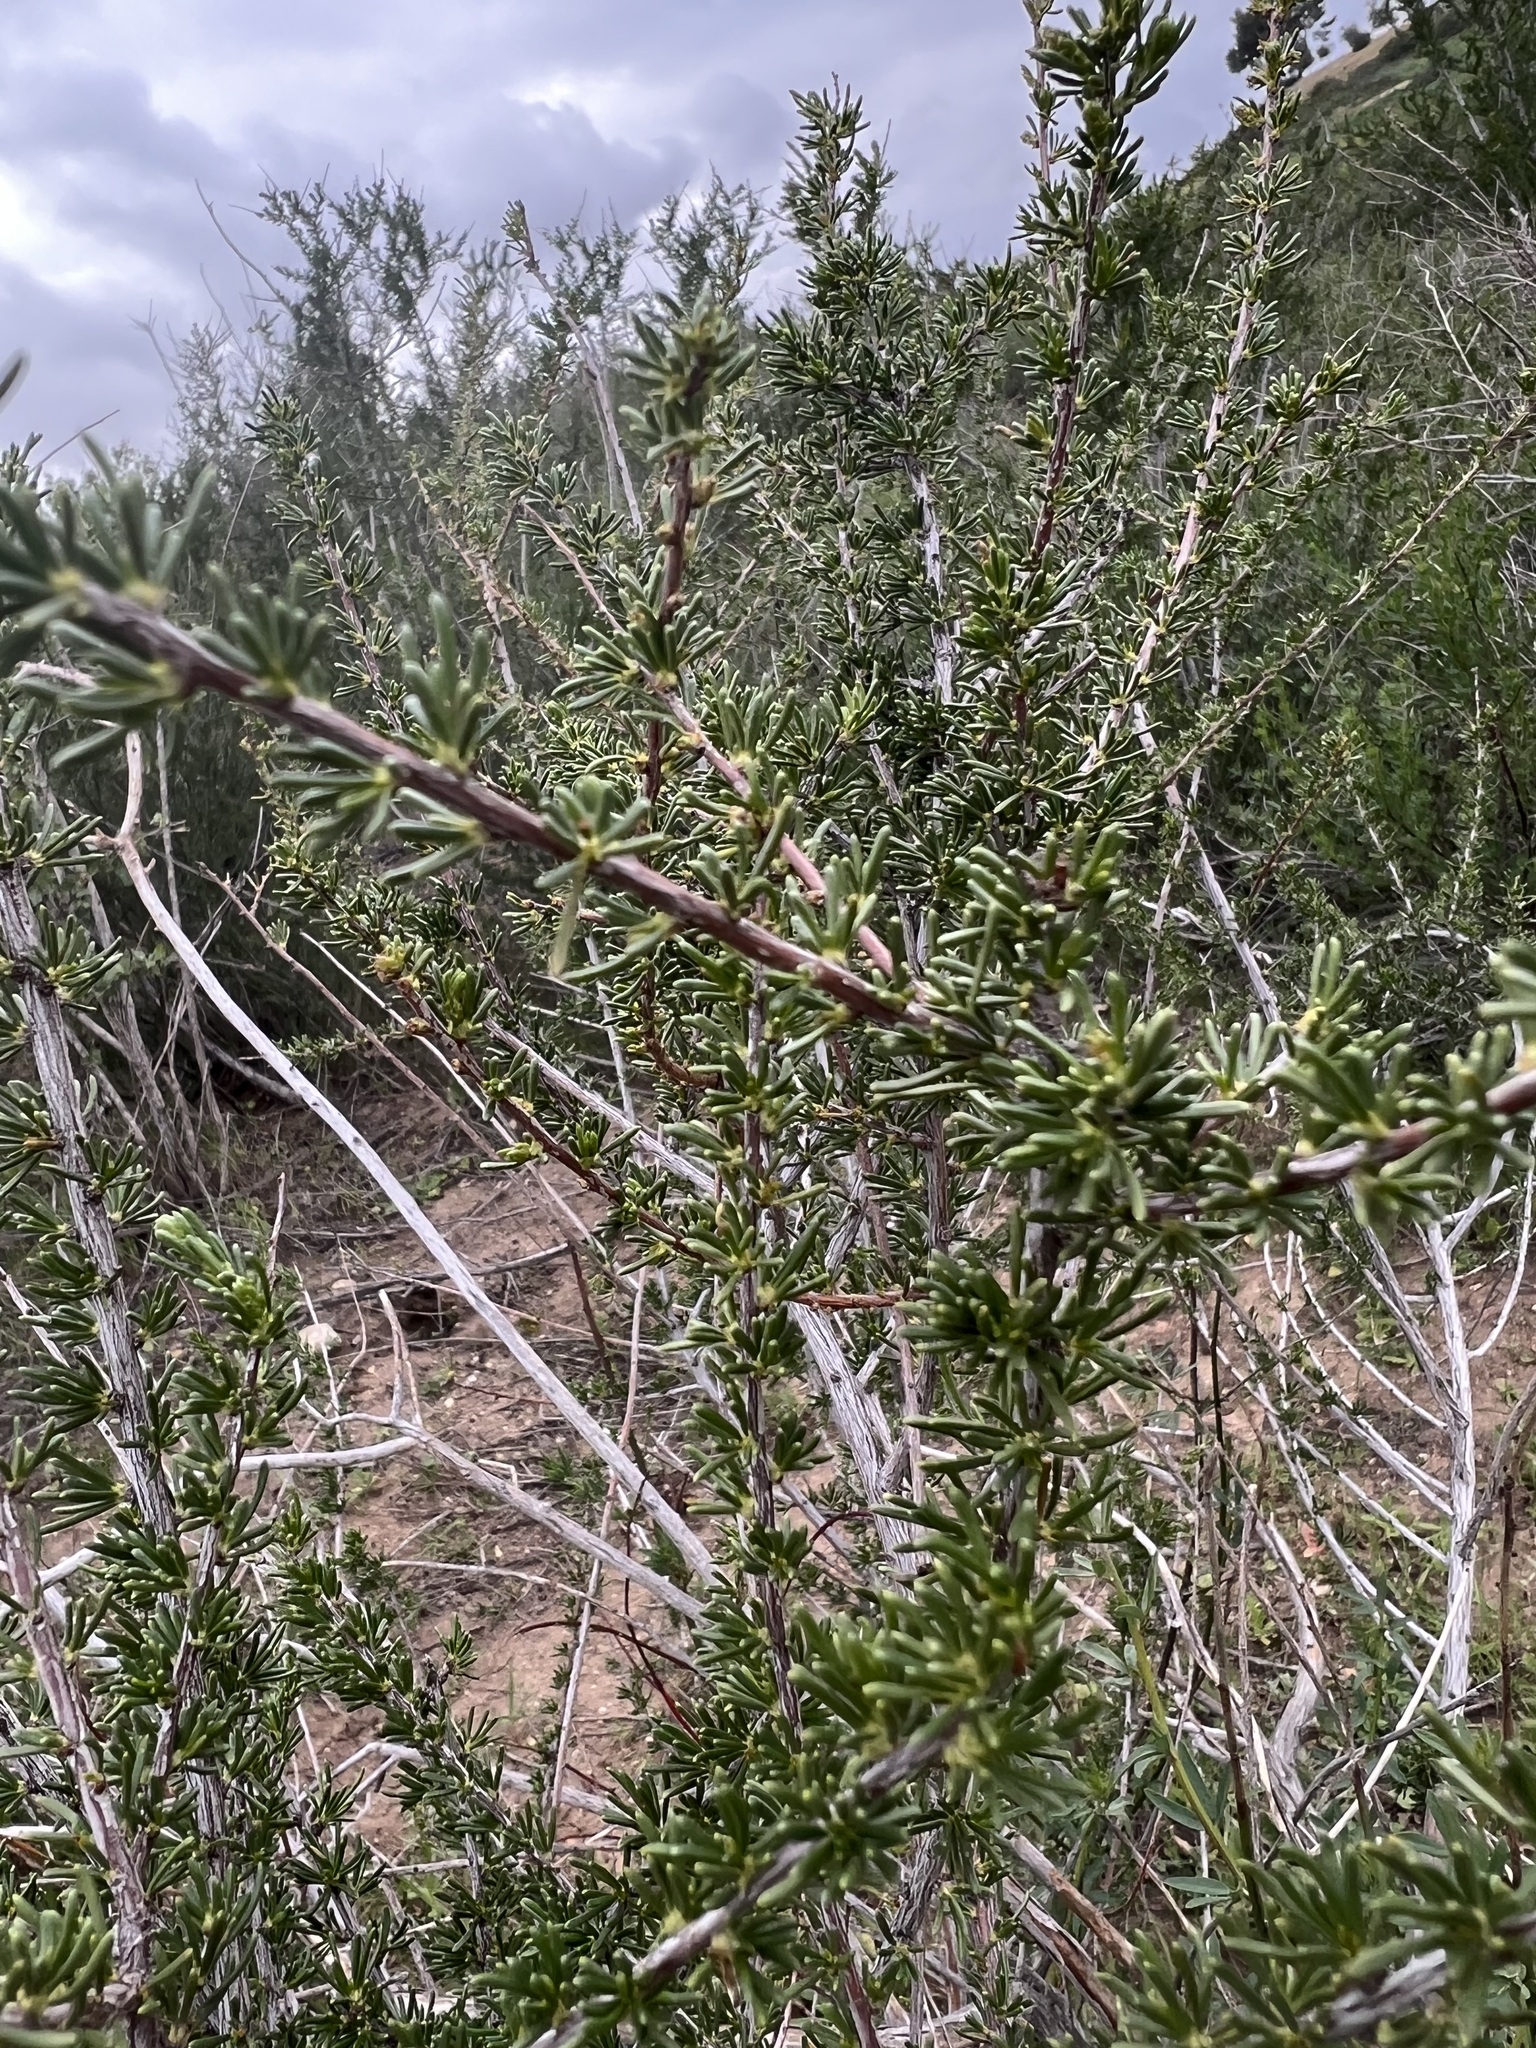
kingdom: Plantae
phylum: Tracheophyta
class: Magnoliopsida
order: Rosales
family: Rosaceae
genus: Adenostoma
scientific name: Adenostoma fasciculatum
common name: Chamise
